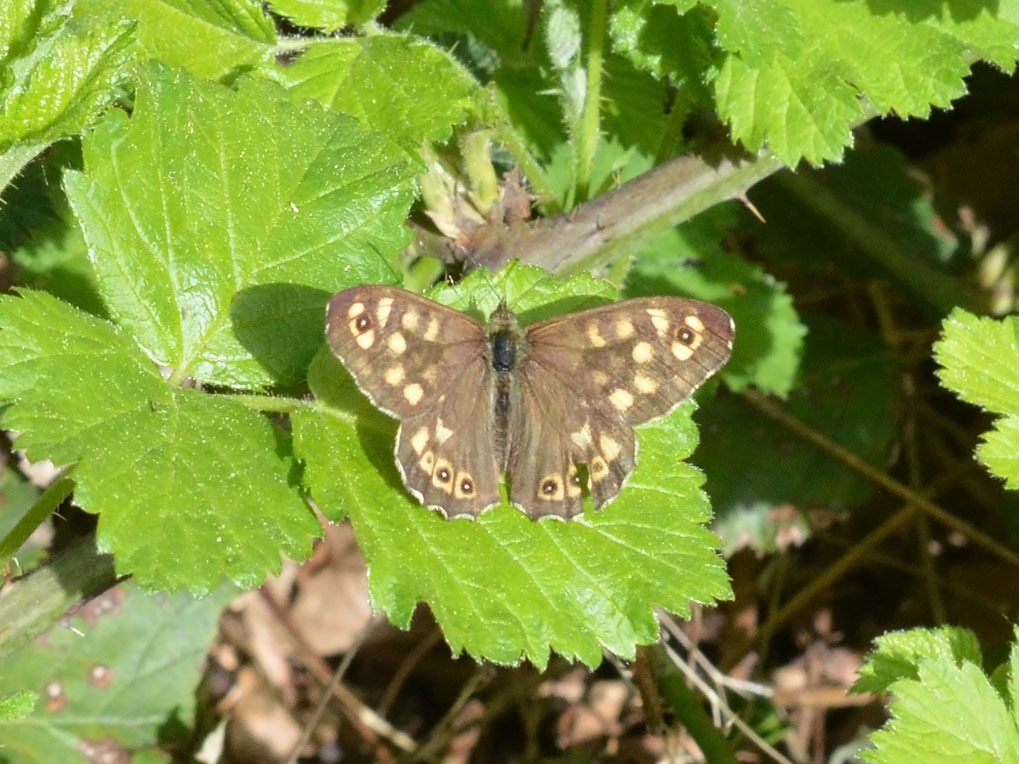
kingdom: Animalia
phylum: Arthropoda
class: Insecta
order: Lepidoptera
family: Nymphalidae
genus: Pararge
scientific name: Pararge aegeria
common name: Speckled wood
